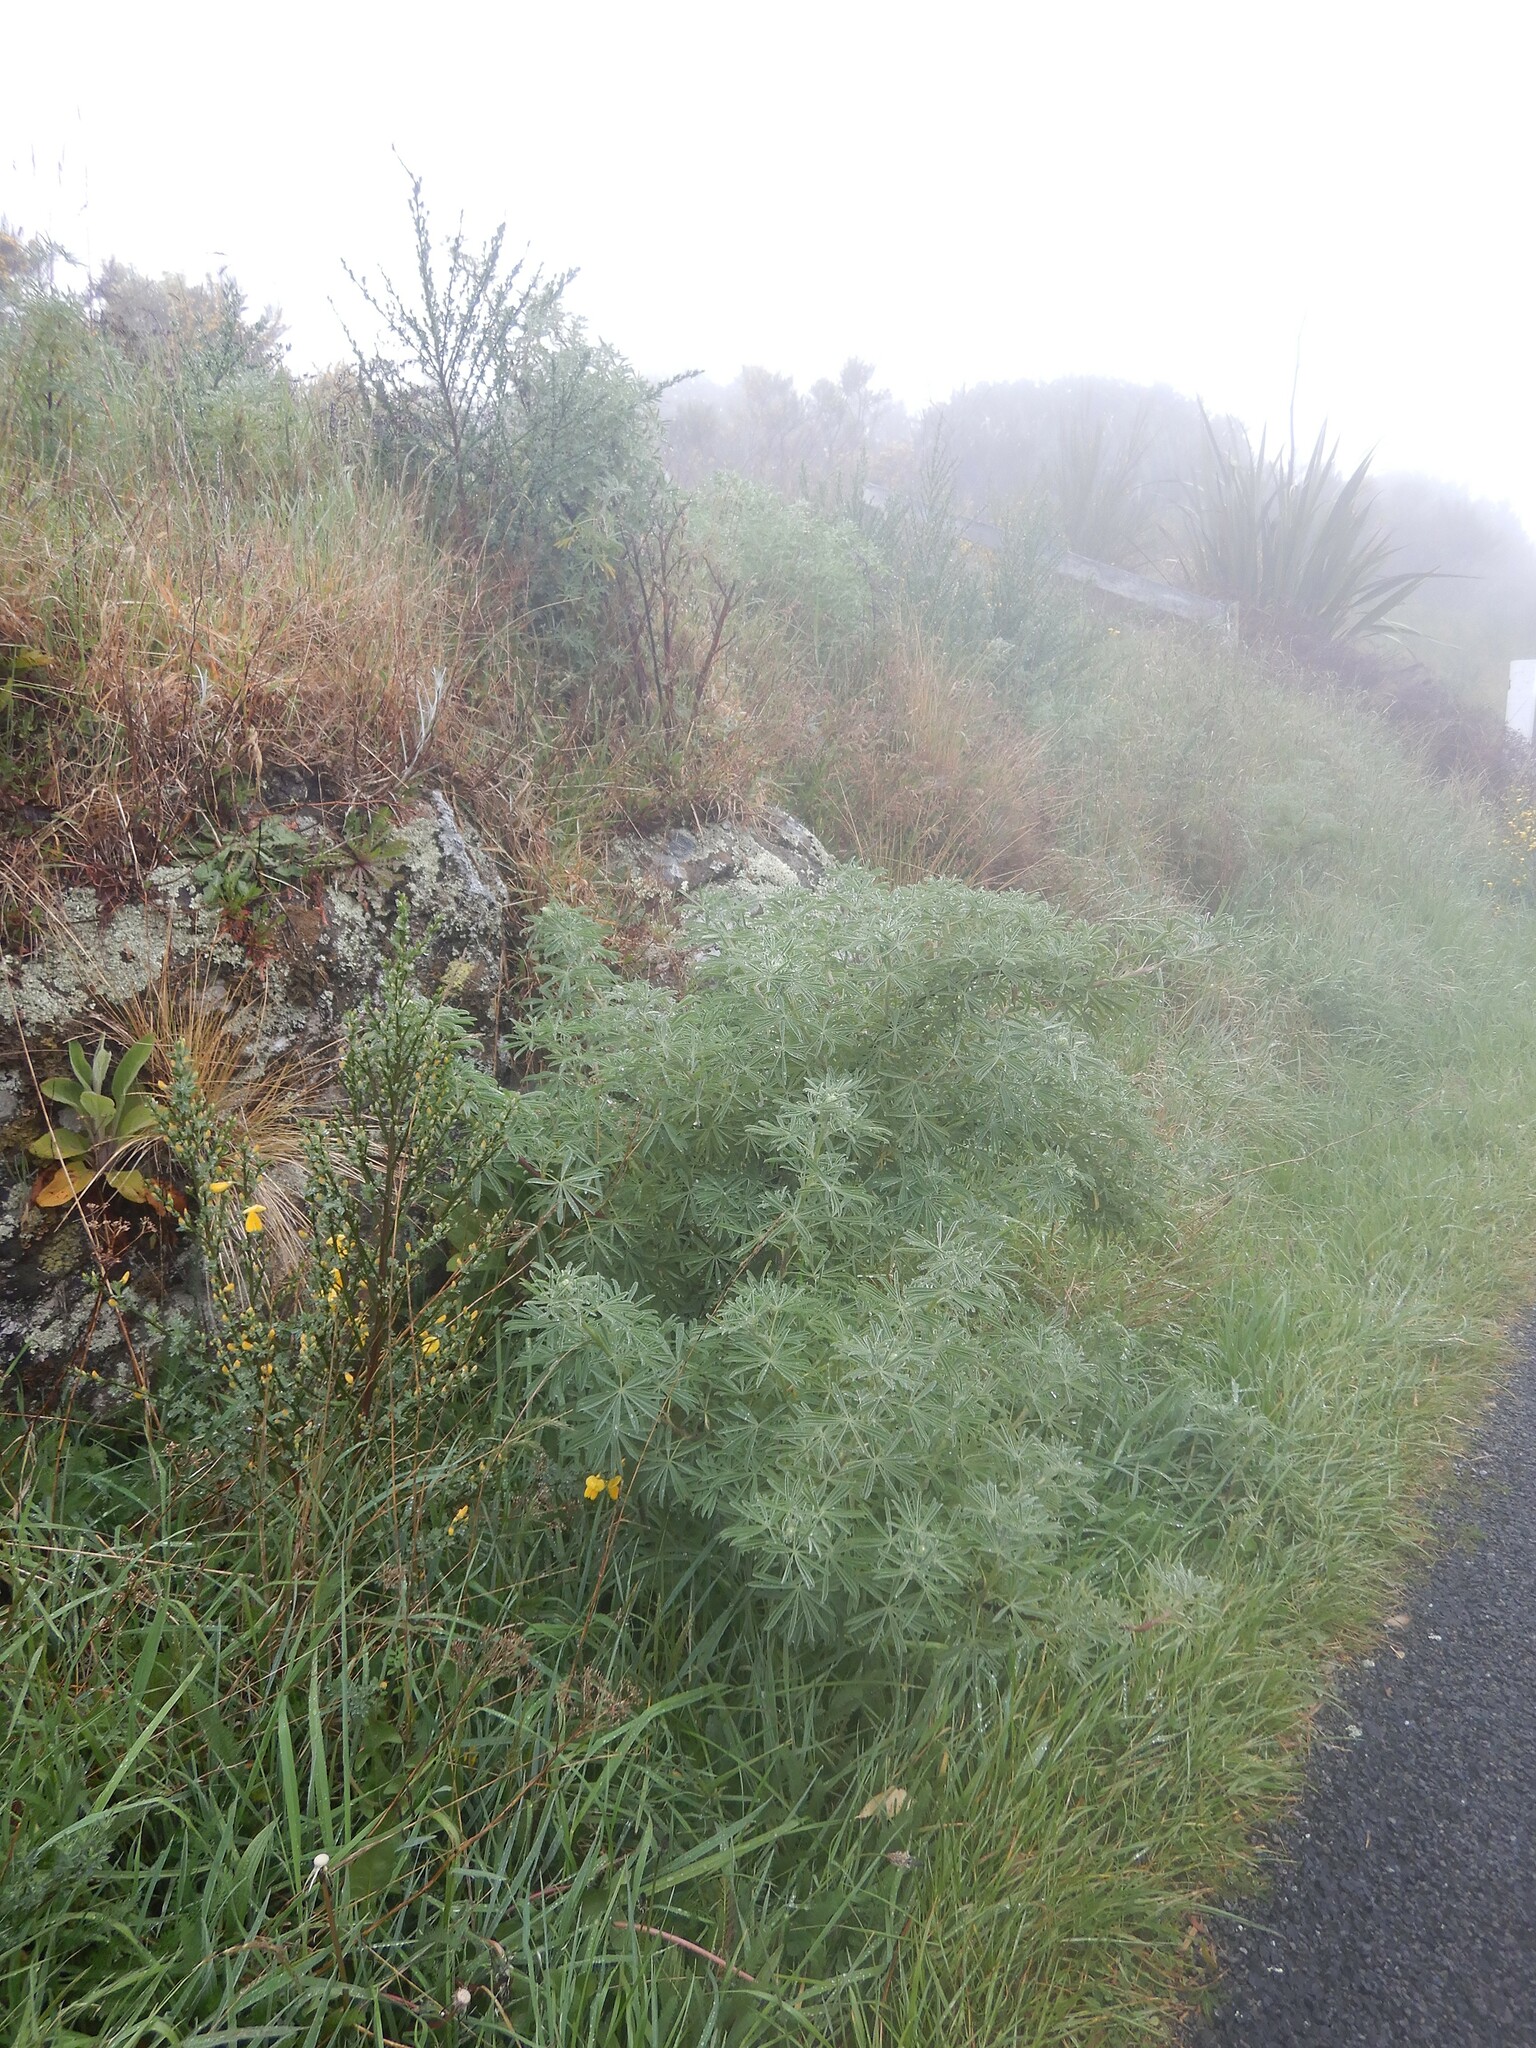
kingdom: Plantae
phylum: Tracheophyta
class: Magnoliopsida
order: Fabales
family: Fabaceae
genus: Lupinus
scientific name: Lupinus arboreus
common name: Yellow bush lupine
